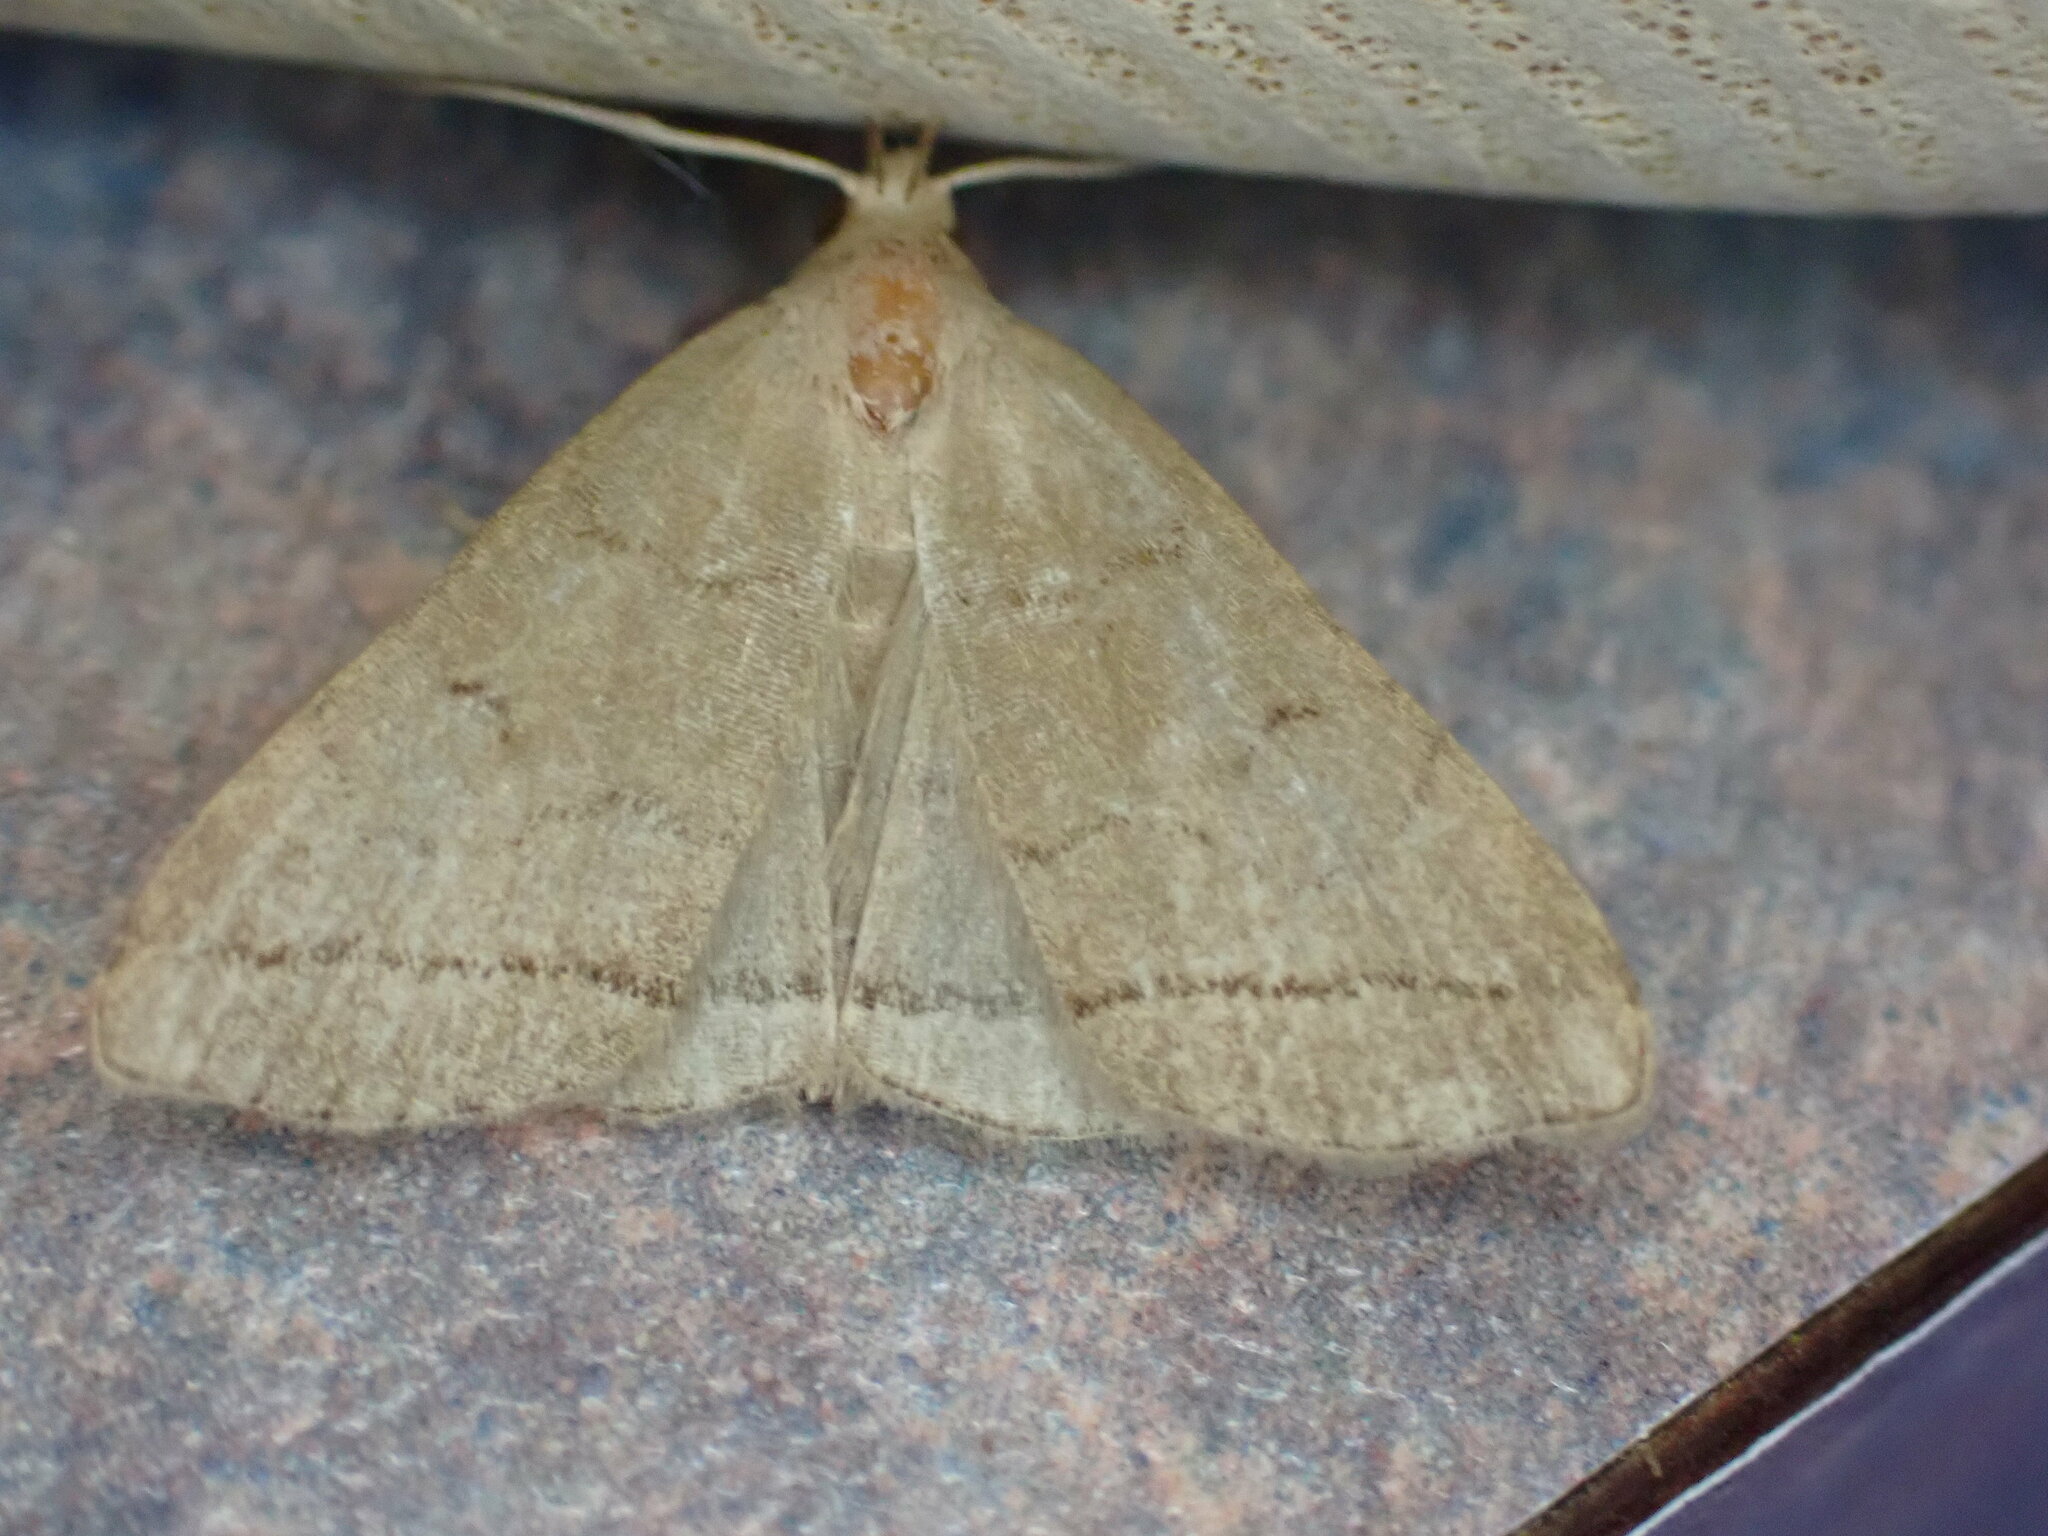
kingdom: Animalia
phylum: Arthropoda
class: Insecta
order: Lepidoptera
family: Erebidae
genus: Herminia
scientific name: Herminia tarsipennalis
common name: Fan-foot
